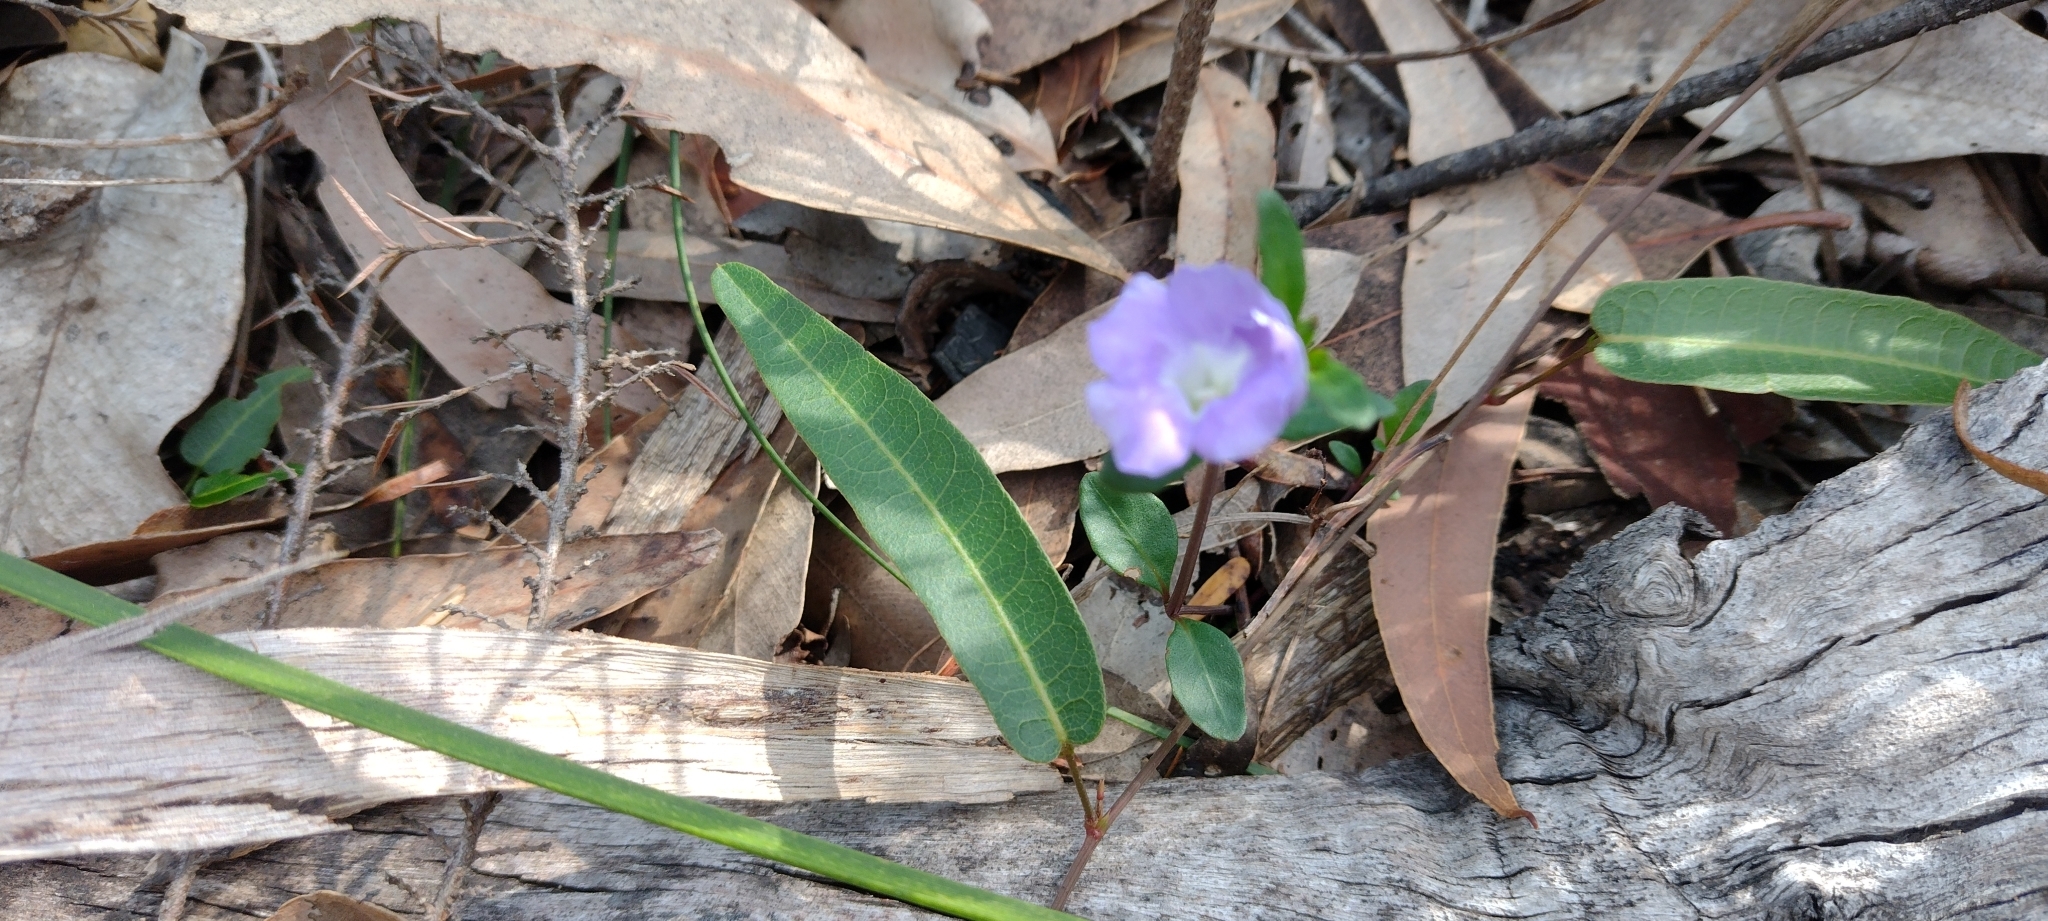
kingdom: Plantae
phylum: Tracheophyta
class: Magnoliopsida
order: Lamiales
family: Acanthaceae
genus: Brunoniella
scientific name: Brunoniella australis
